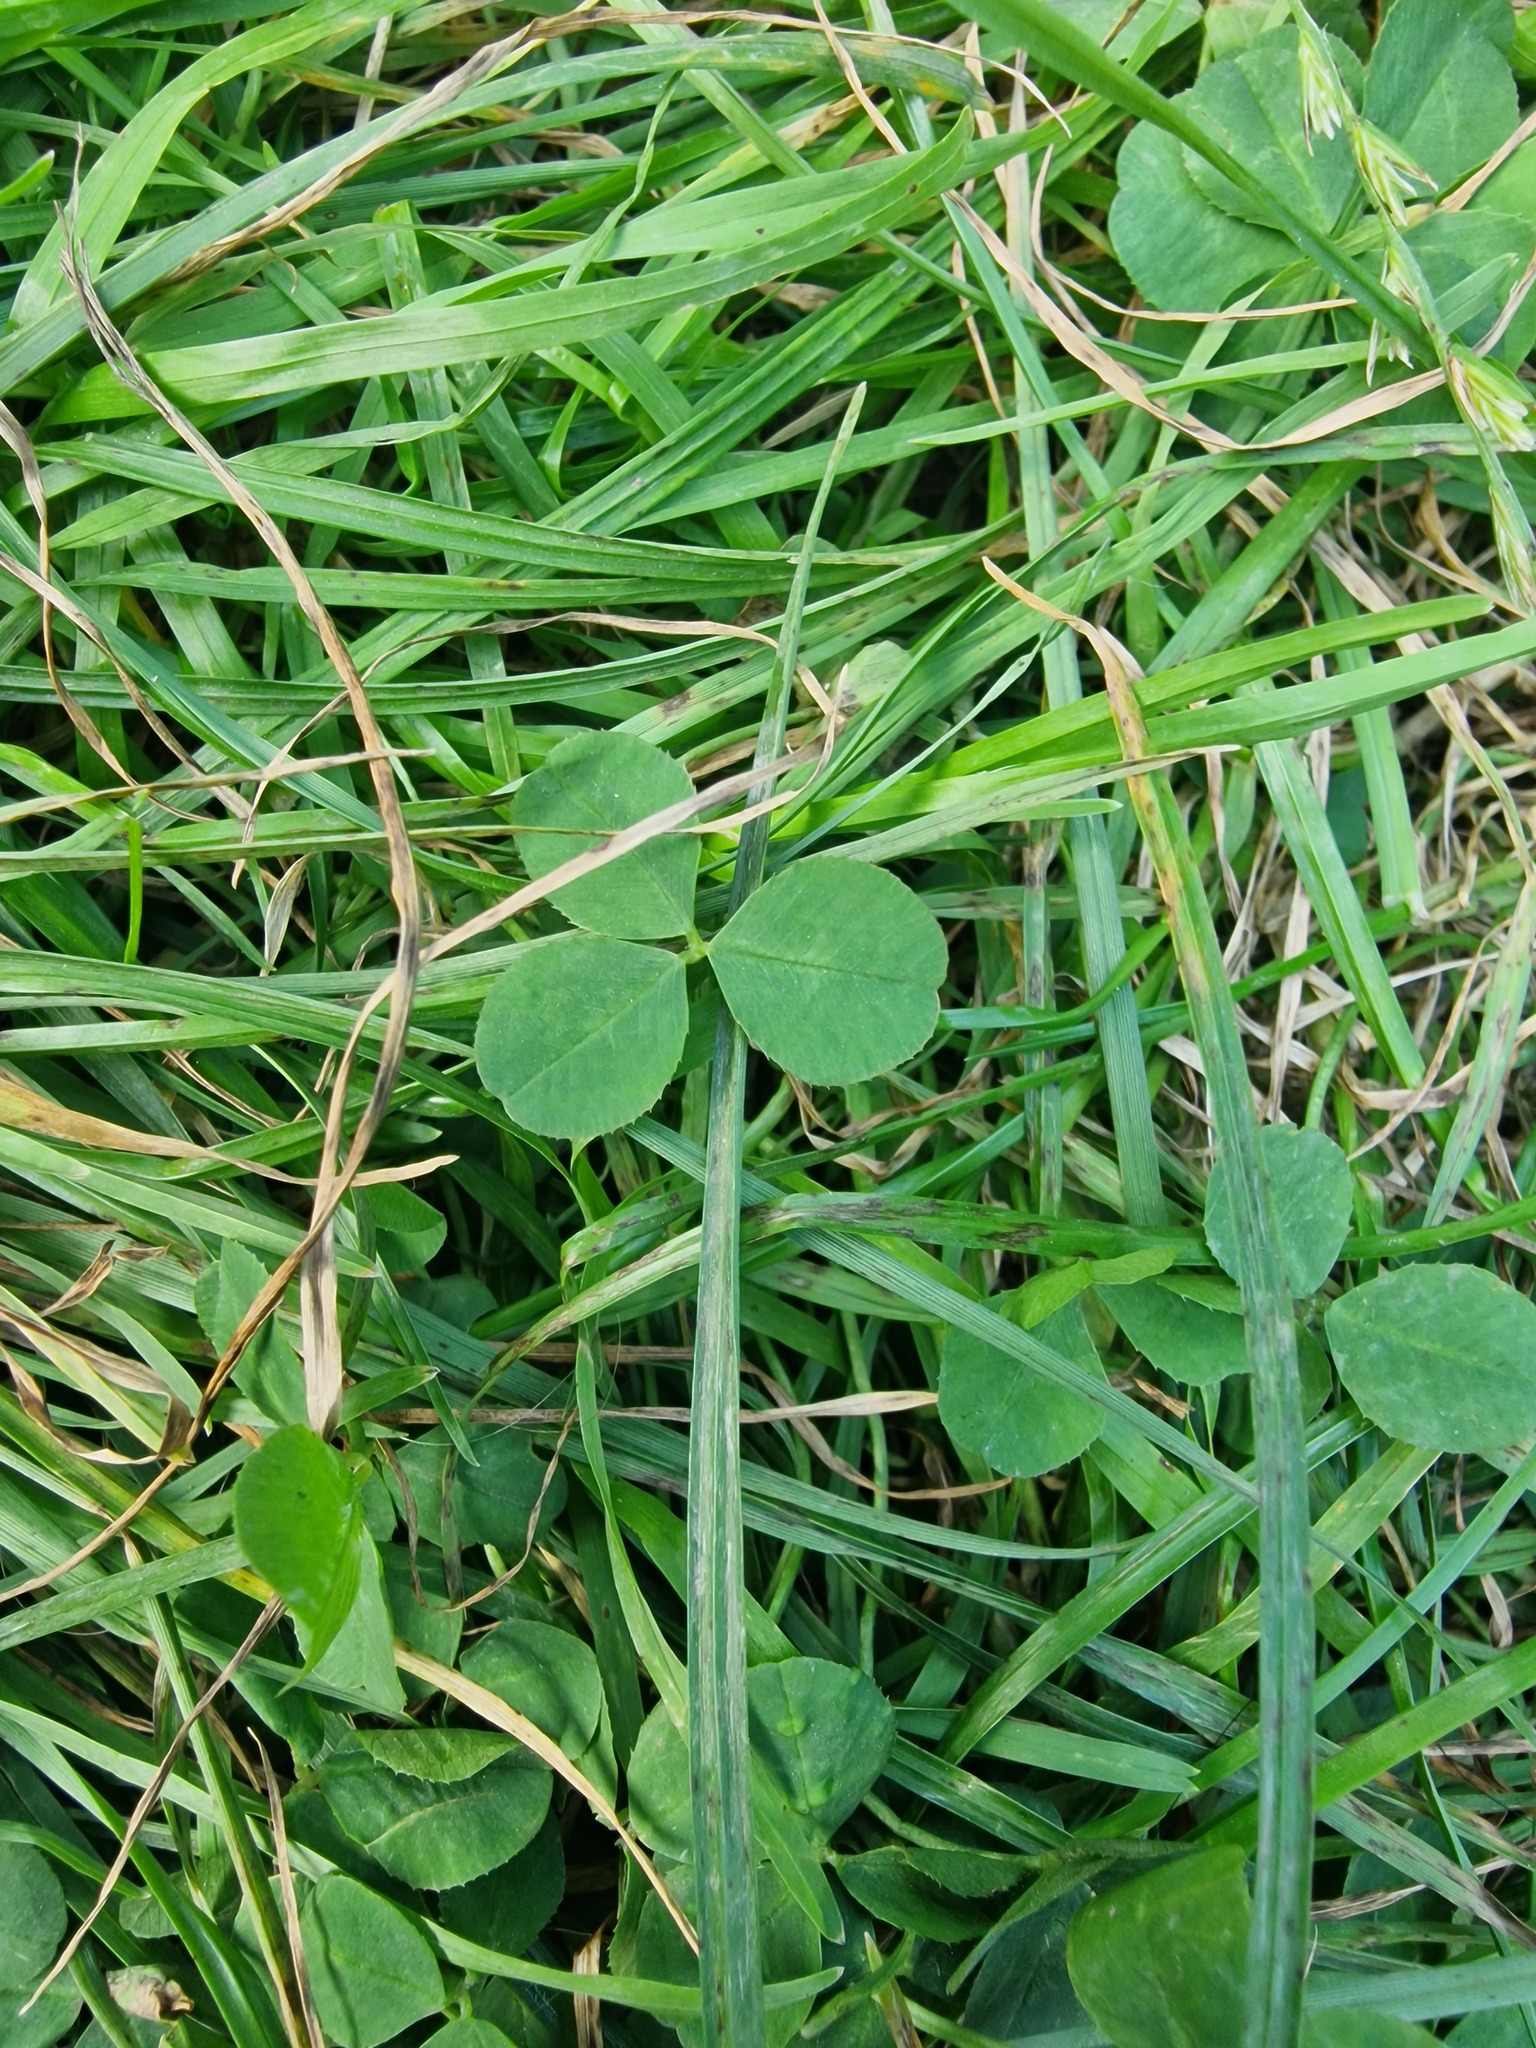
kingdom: Plantae
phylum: Tracheophyta
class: Magnoliopsida
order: Fabales
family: Fabaceae
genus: Trifolium
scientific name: Trifolium repens
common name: White clover
